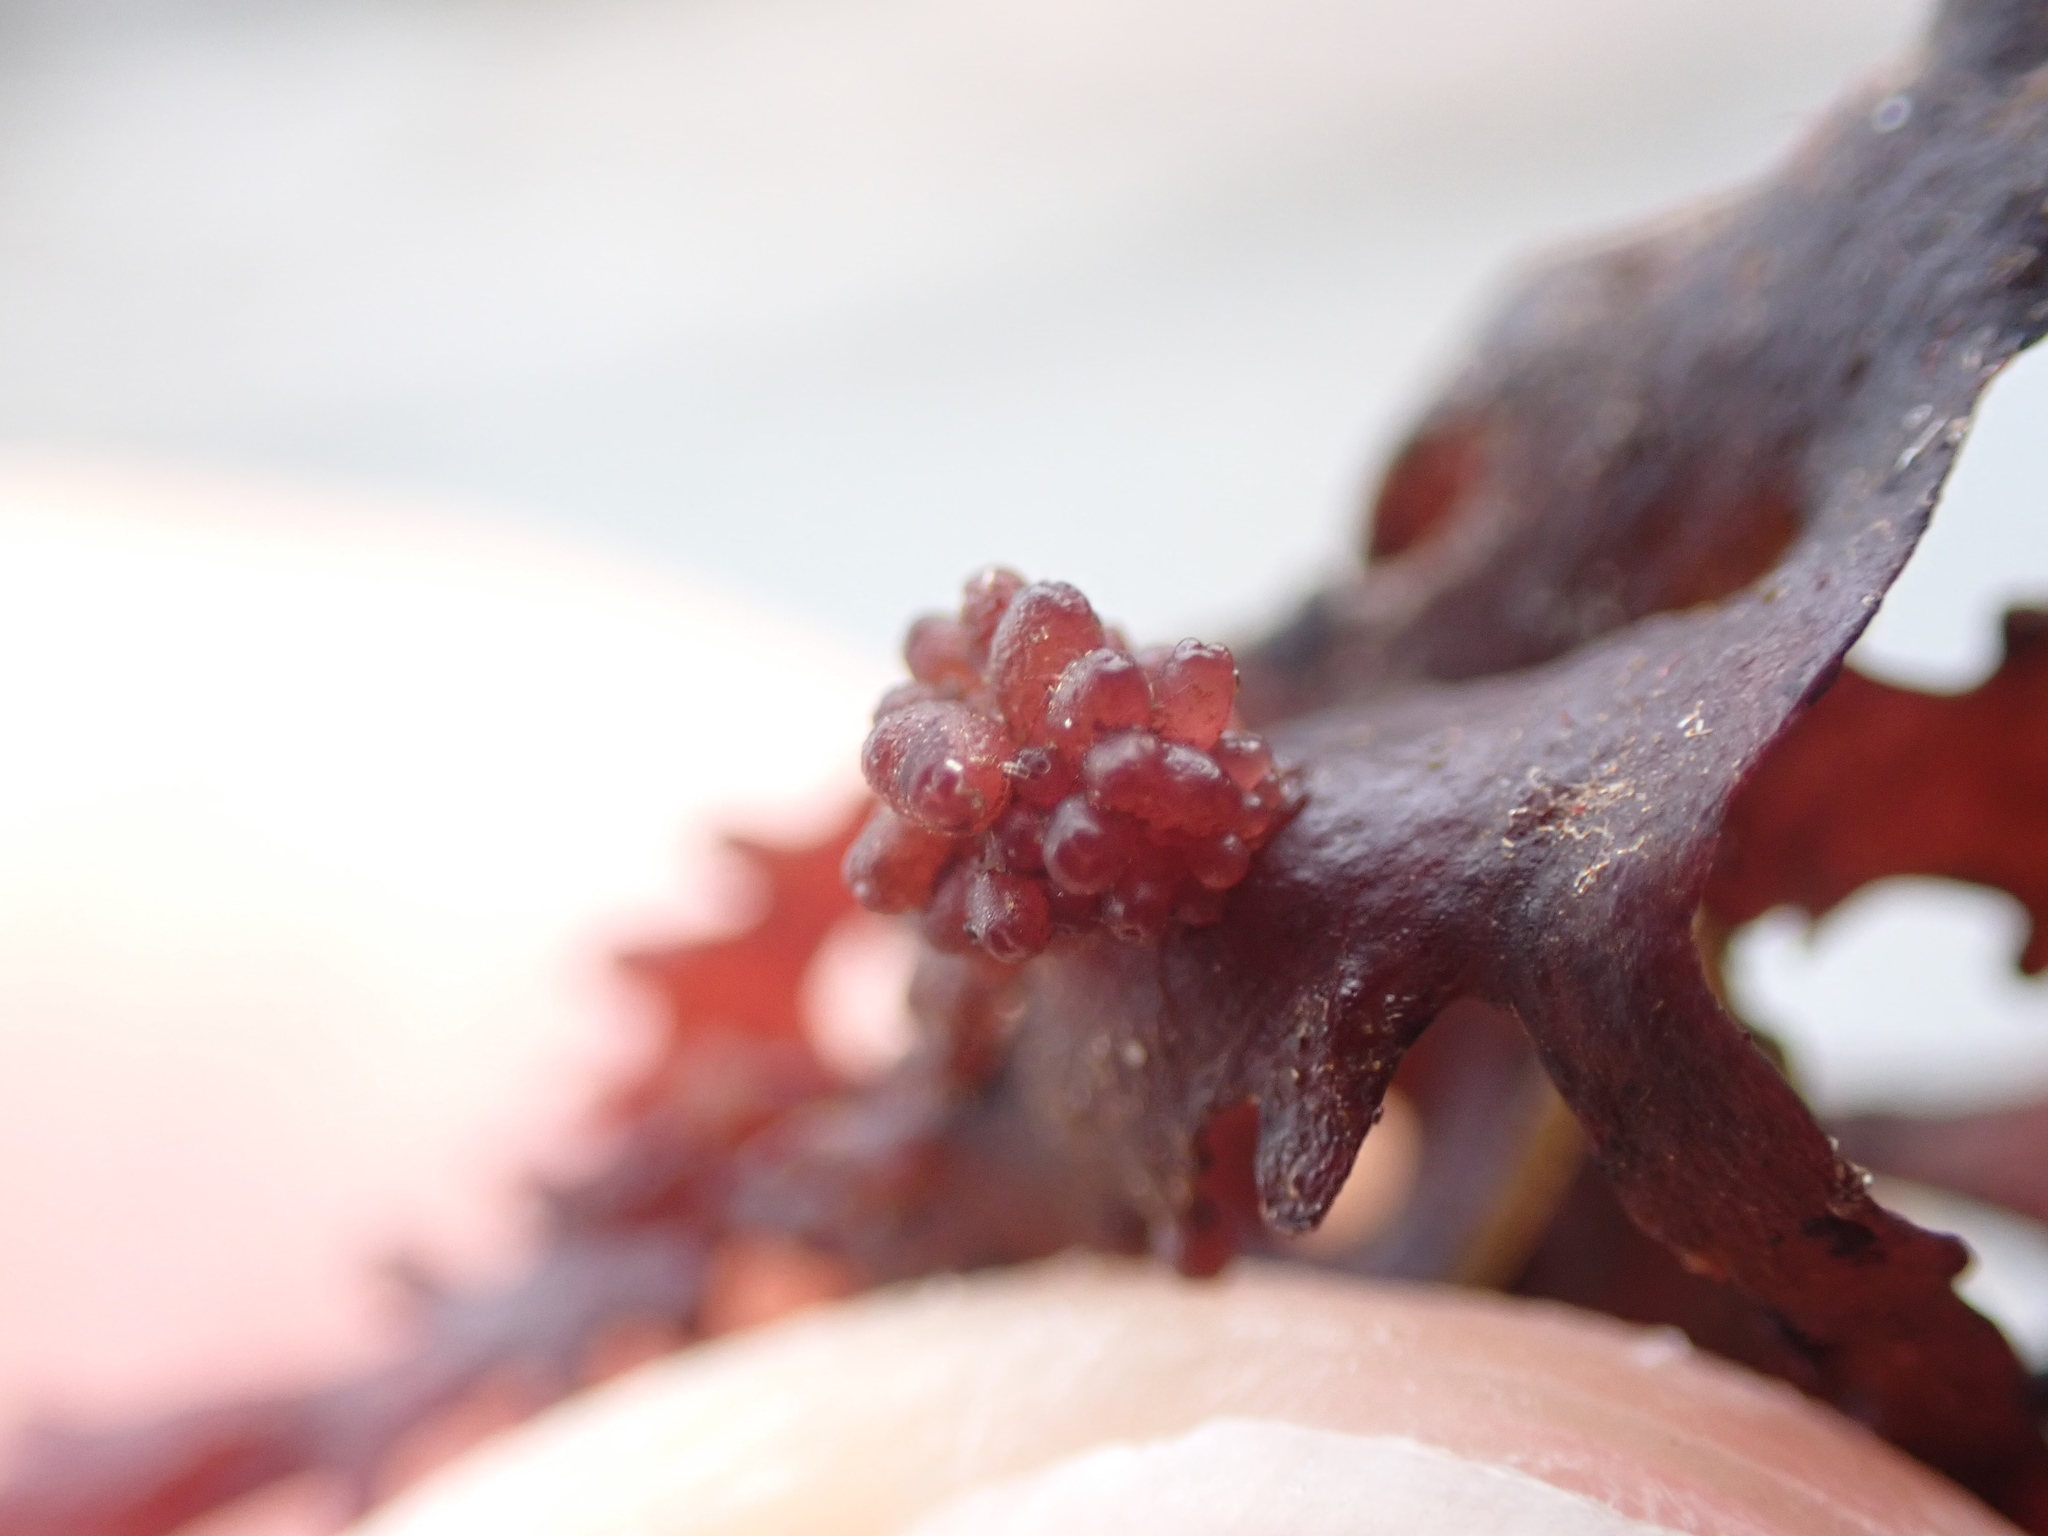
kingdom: Plantae
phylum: Rhodophyta
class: Florideophyceae
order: Ceramiales
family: Rhodomelaceae
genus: Janczewskia
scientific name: Janczewskia gardneri
